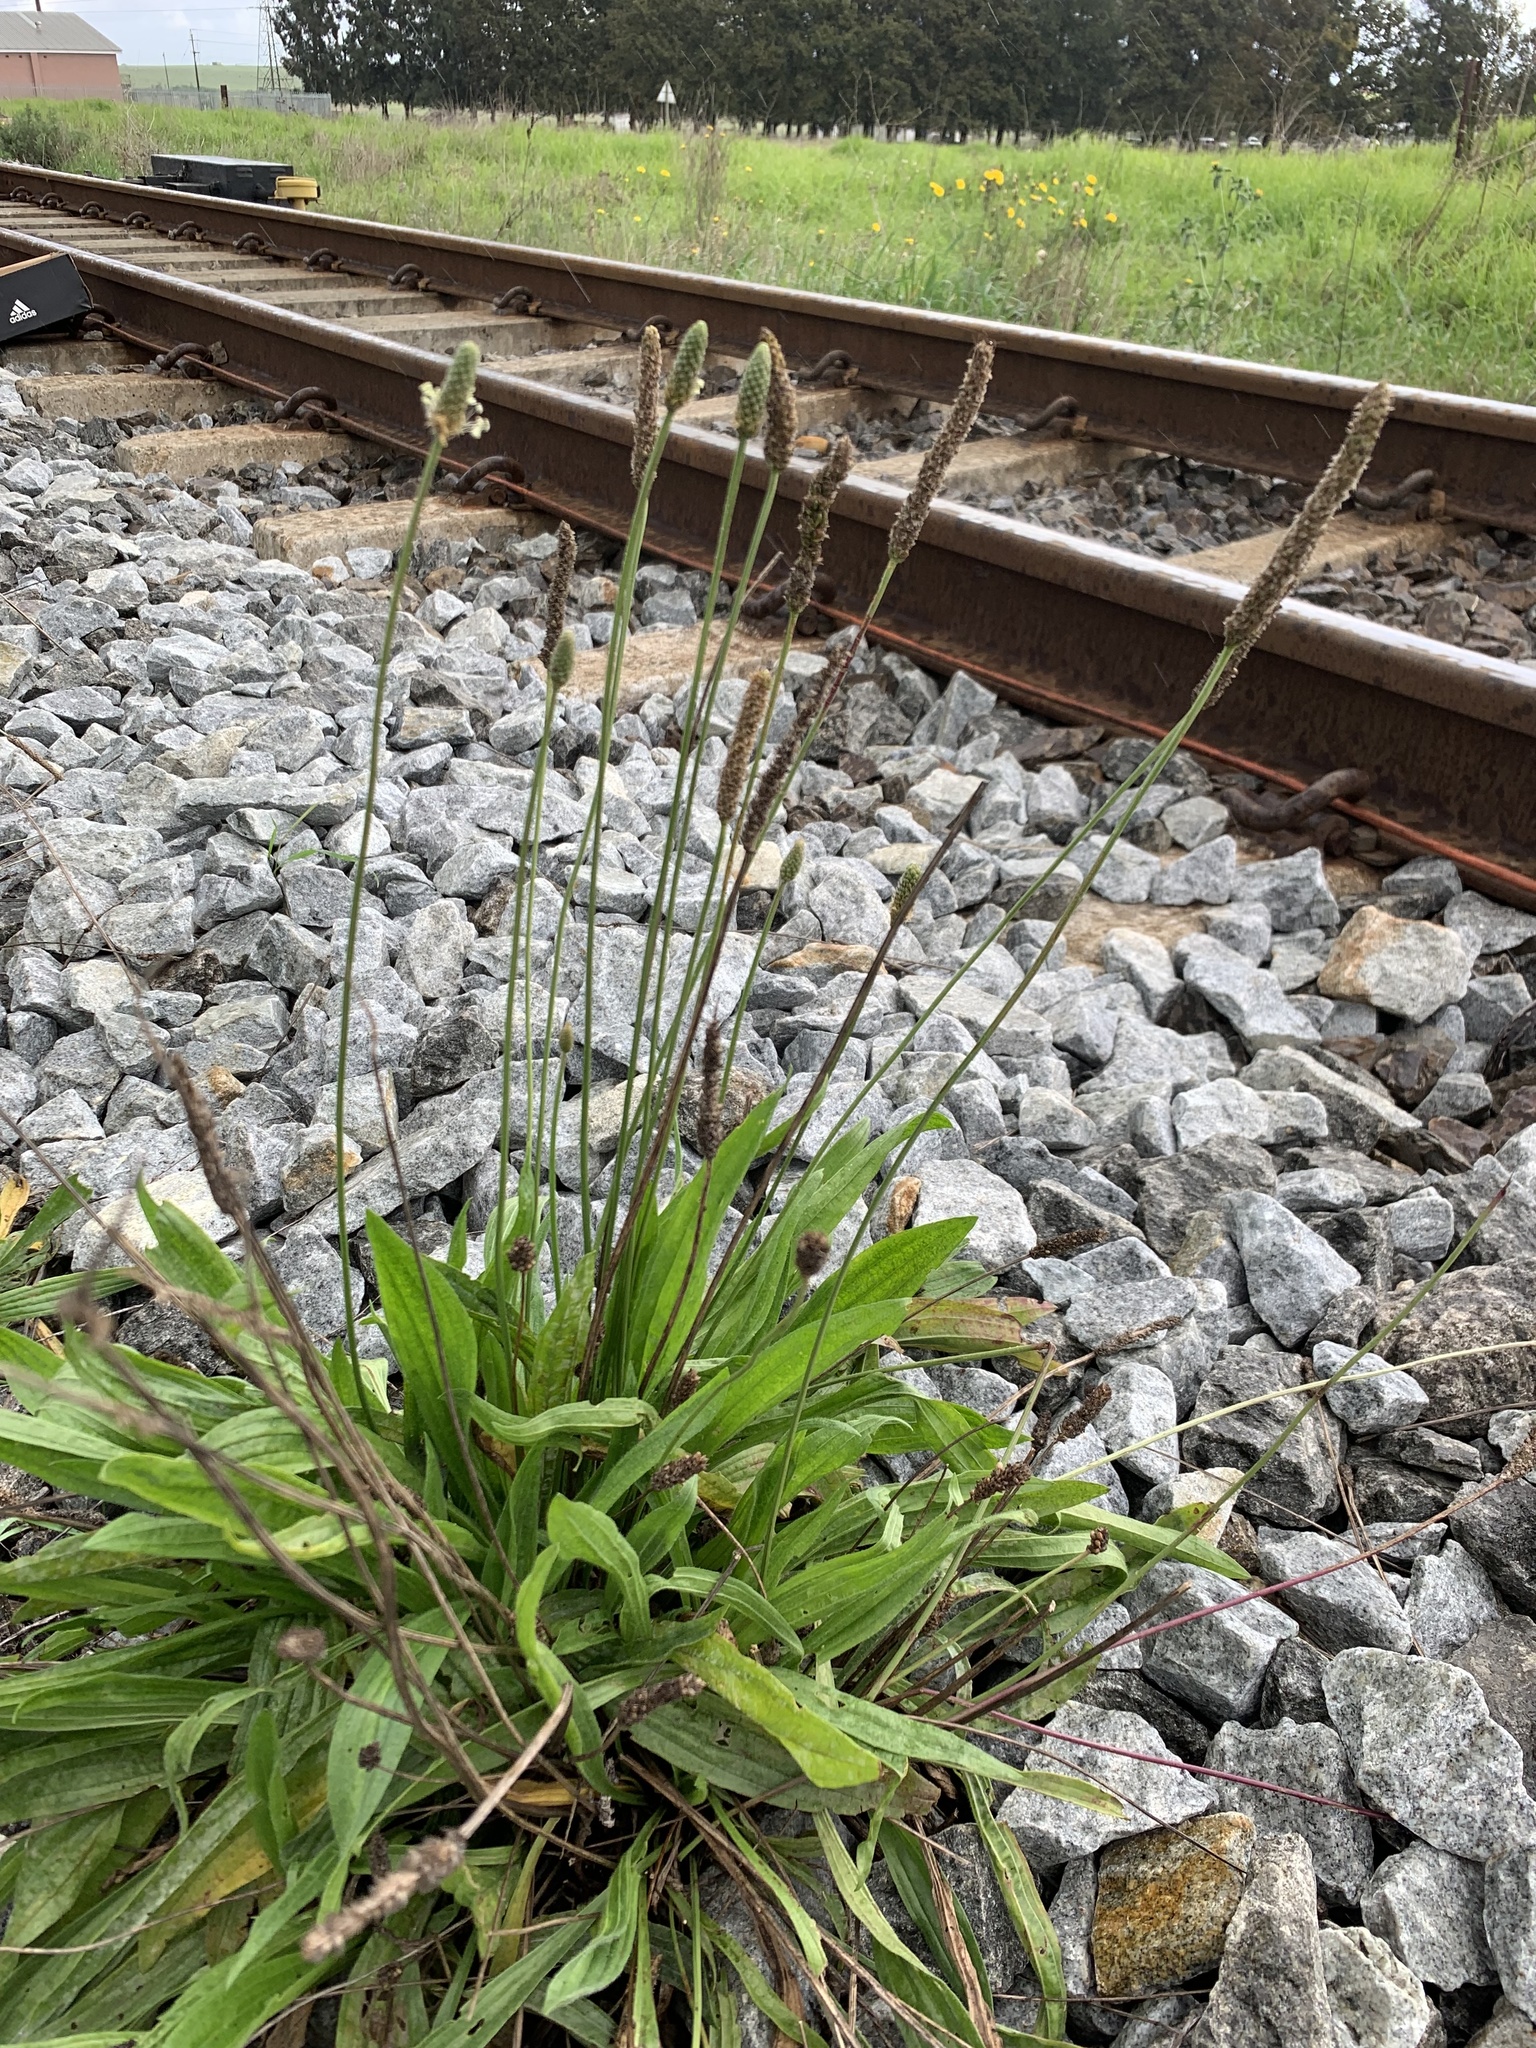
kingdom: Plantae
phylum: Tracheophyta
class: Magnoliopsida
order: Lamiales
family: Plantaginaceae
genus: Plantago
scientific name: Plantago lanceolata
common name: Ribwort plantain
